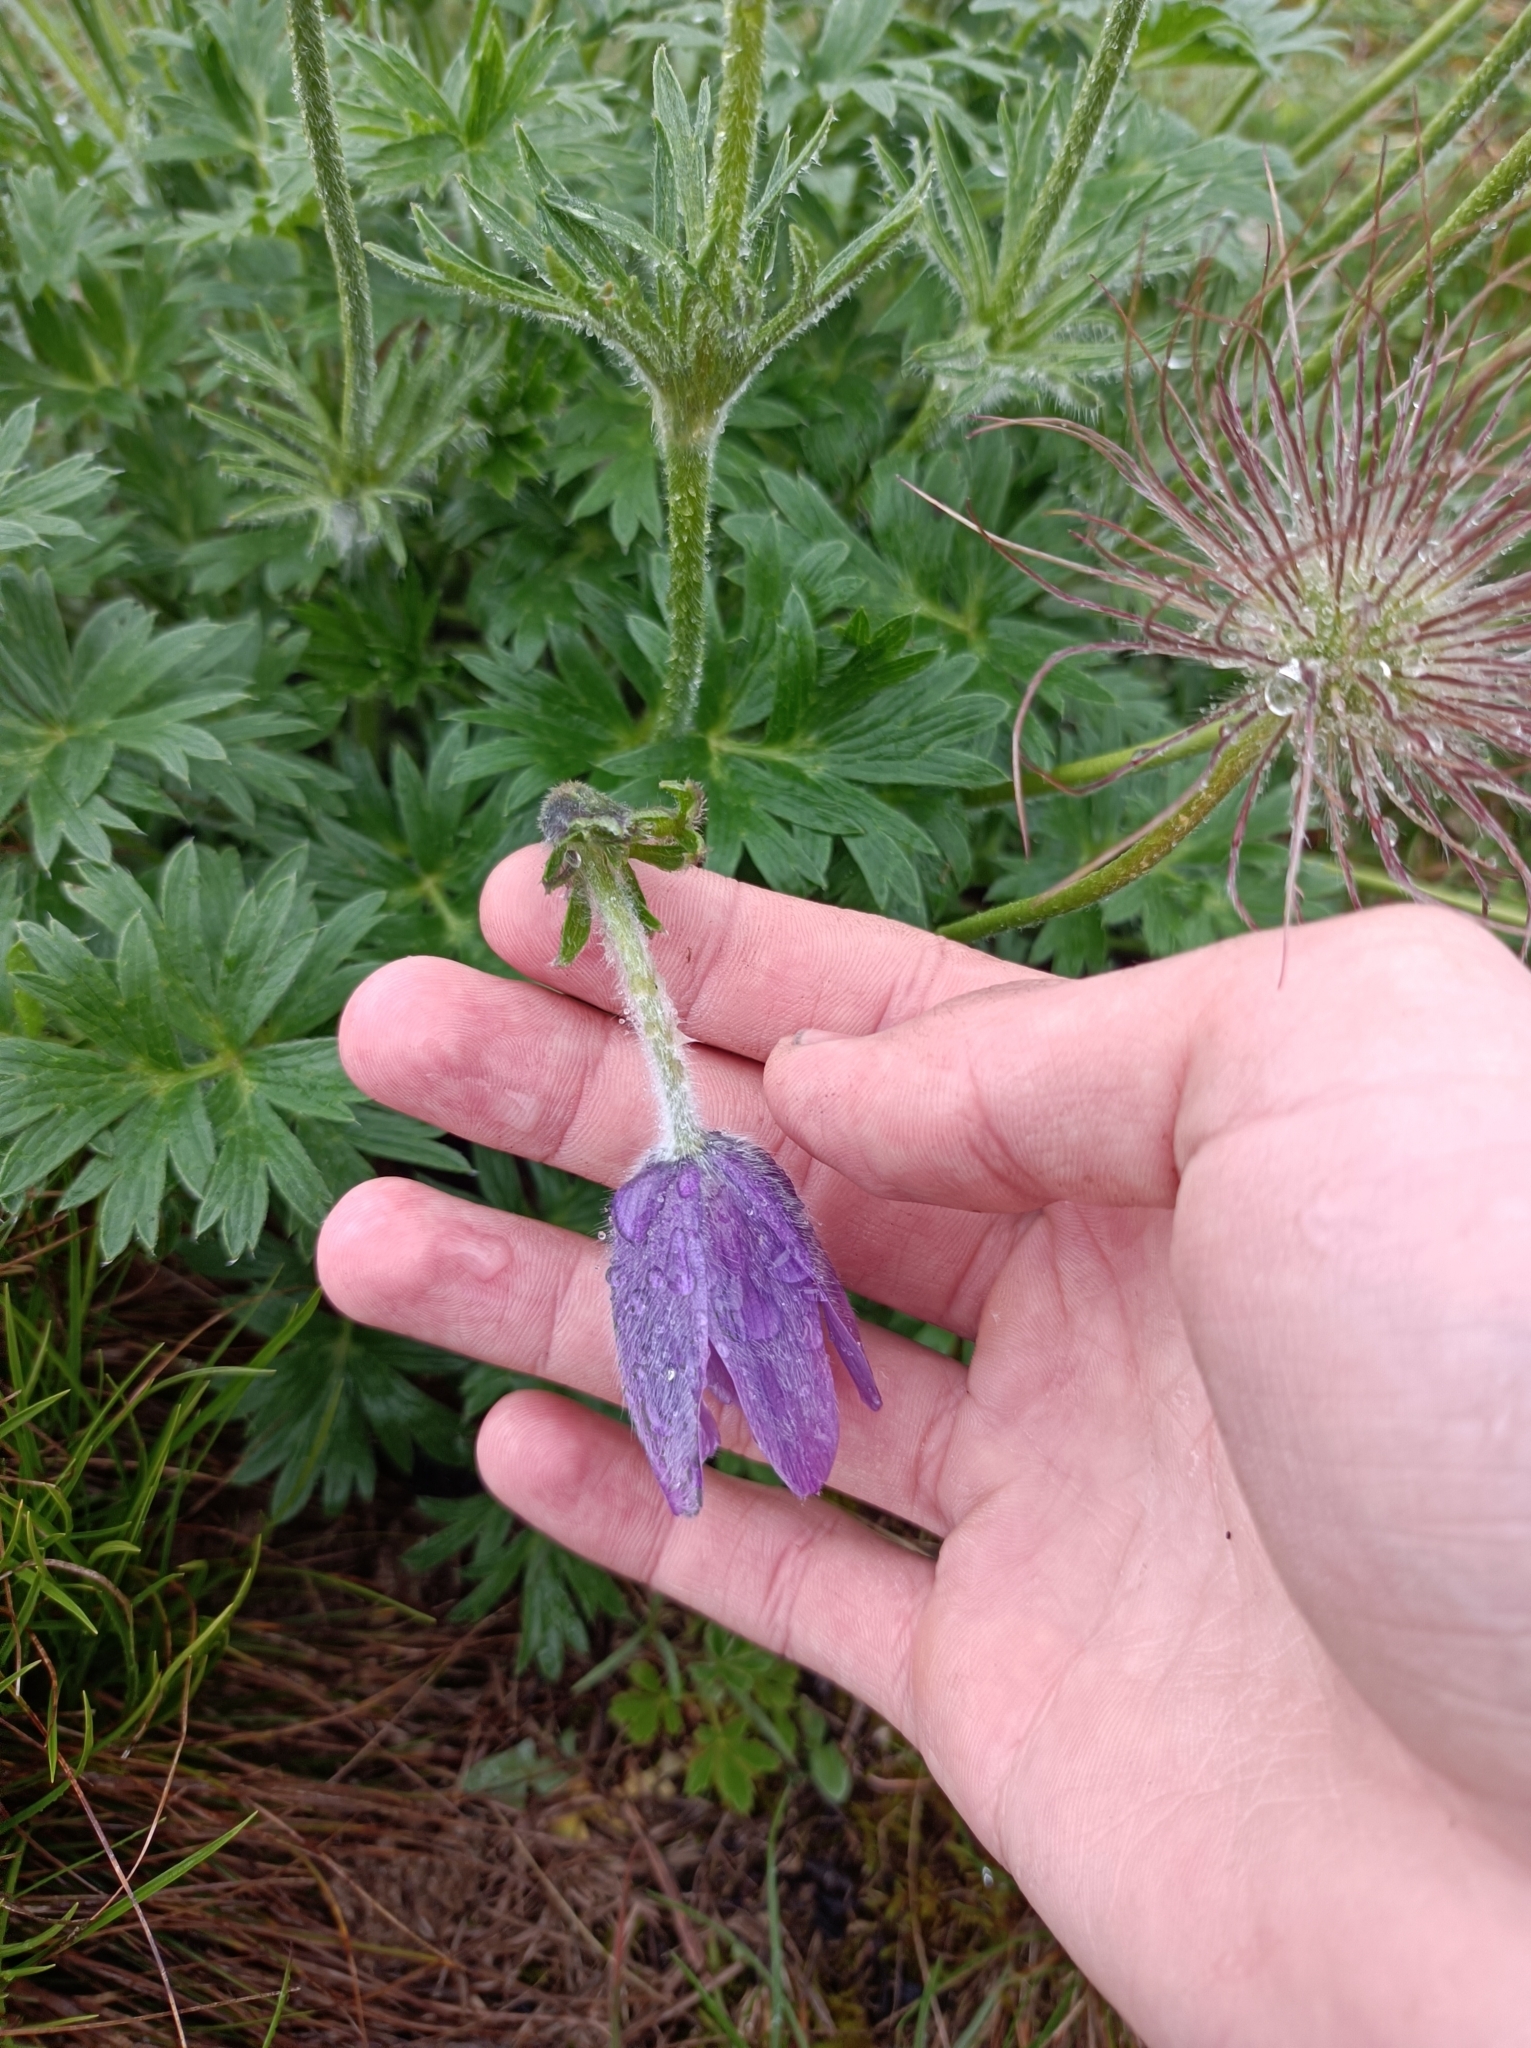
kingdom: Plantae
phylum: Tracheophyta
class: Magnoliopsida
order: Ranunculales
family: Ranunculaceae
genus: Pulsatilla
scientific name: Pulsatilla halleri
